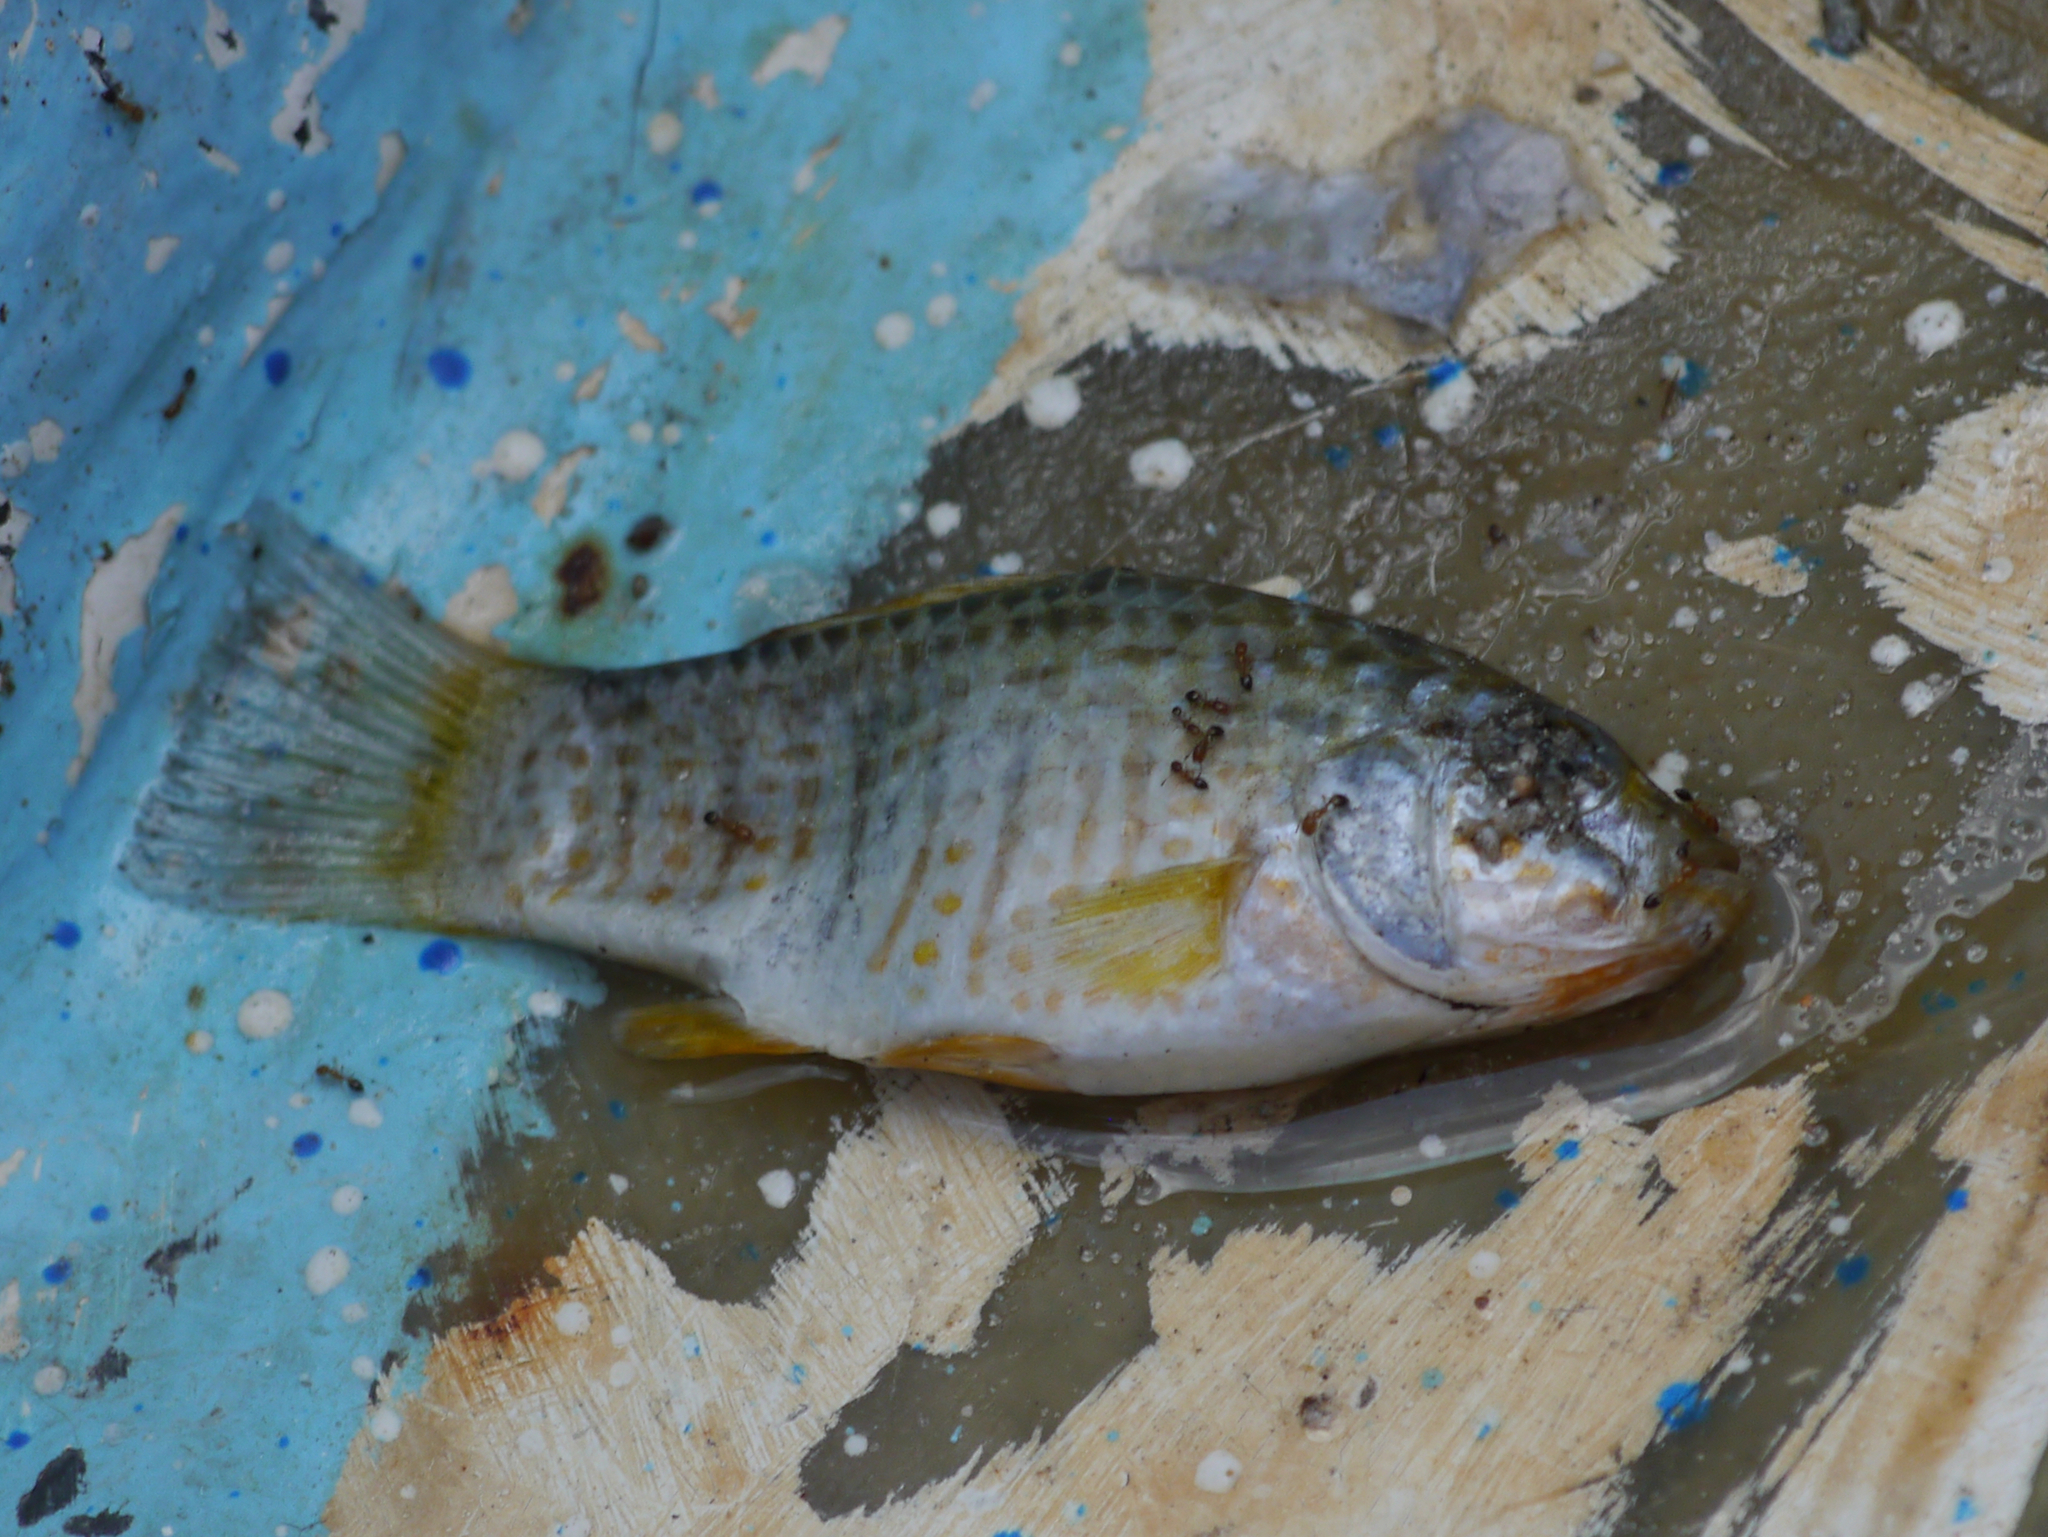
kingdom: Animalia
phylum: Chordata
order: Cyprinodontiformes
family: Cyprinodontidae
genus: Floridichthys
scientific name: Floridichthys carpio
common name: Goldspotted killifish
